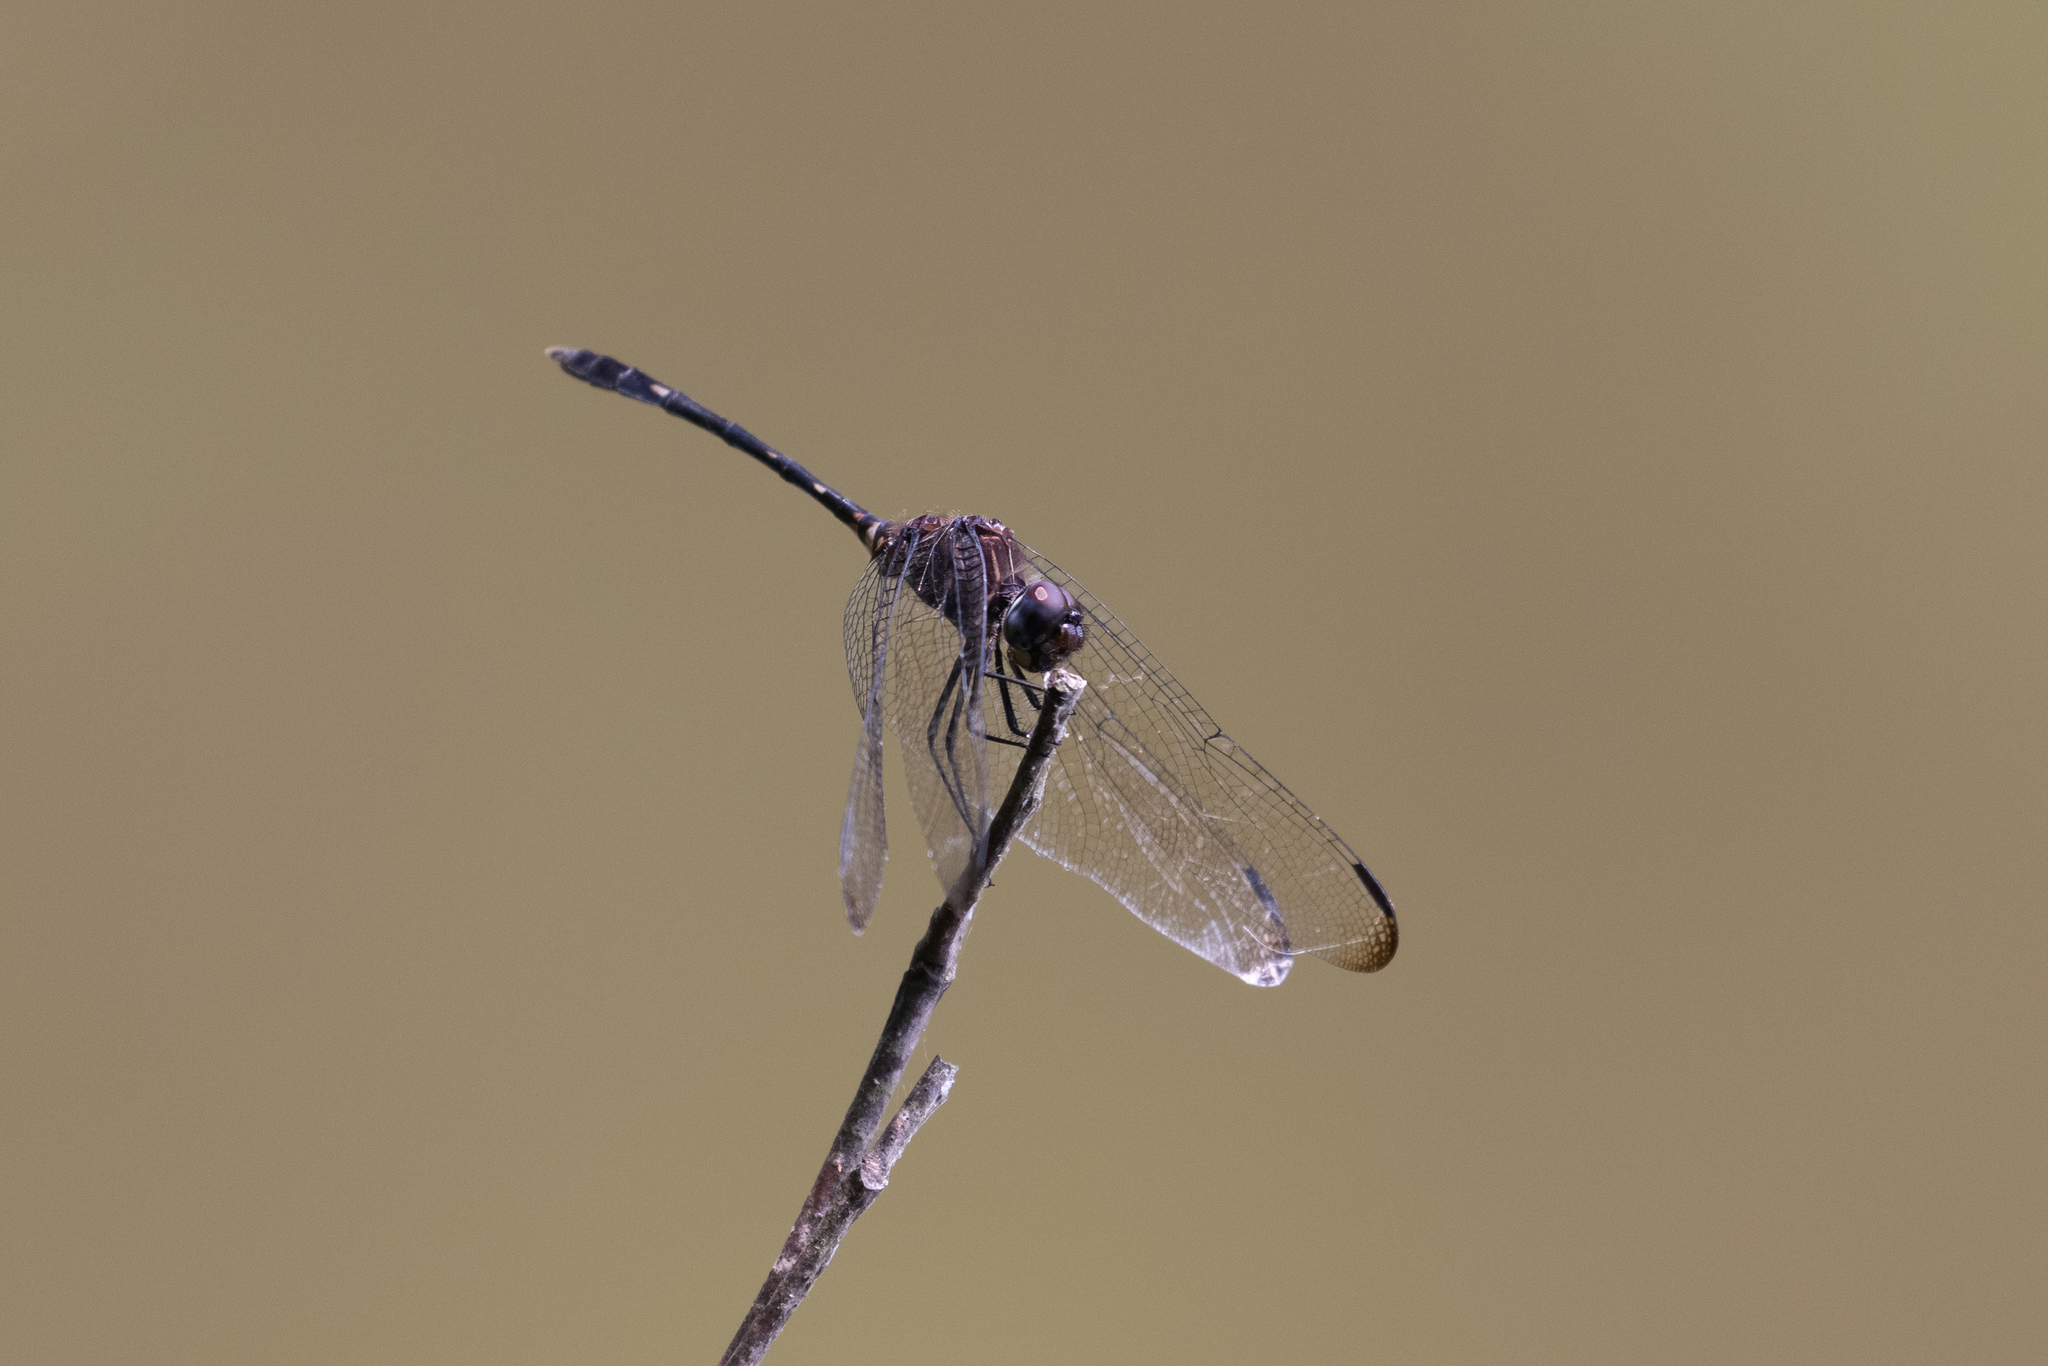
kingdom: Animalia
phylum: Arthropoda
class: Insecta
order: Odonata
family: Libellulidae
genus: Dythemis
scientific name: Dythemis velox
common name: Swift setwing
